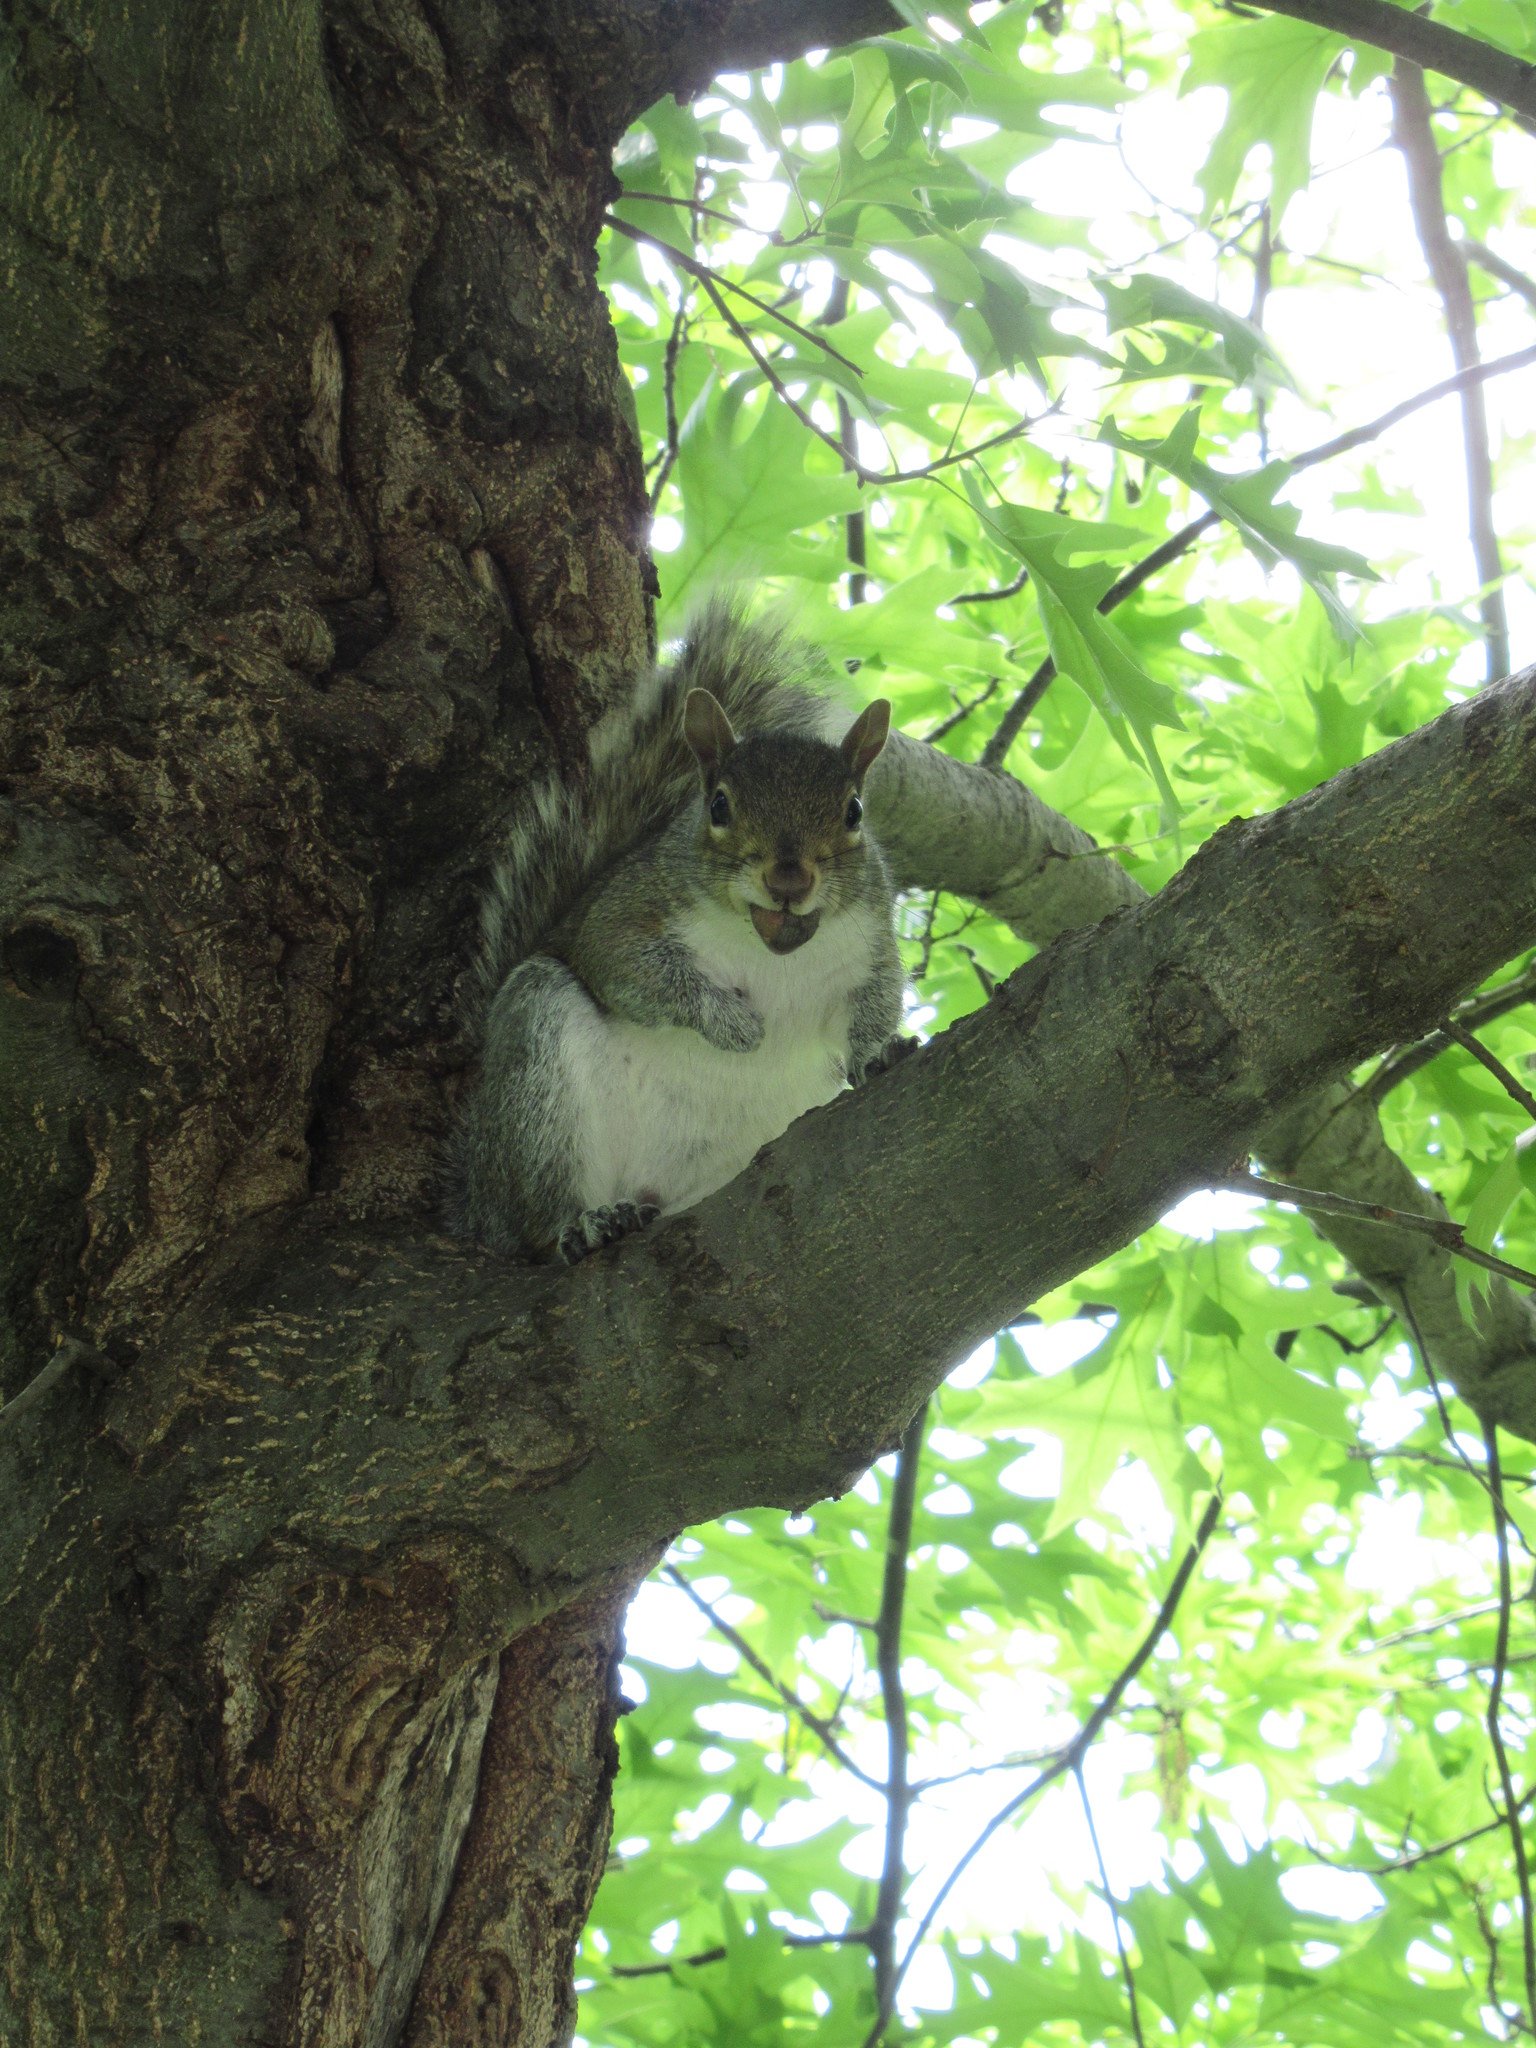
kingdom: Animalia
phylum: Chordata
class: Mammalia
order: Rodentia
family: Sciuridae
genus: Sciurus
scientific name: Sciurus carolinensis
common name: Eastern gray squirrel
